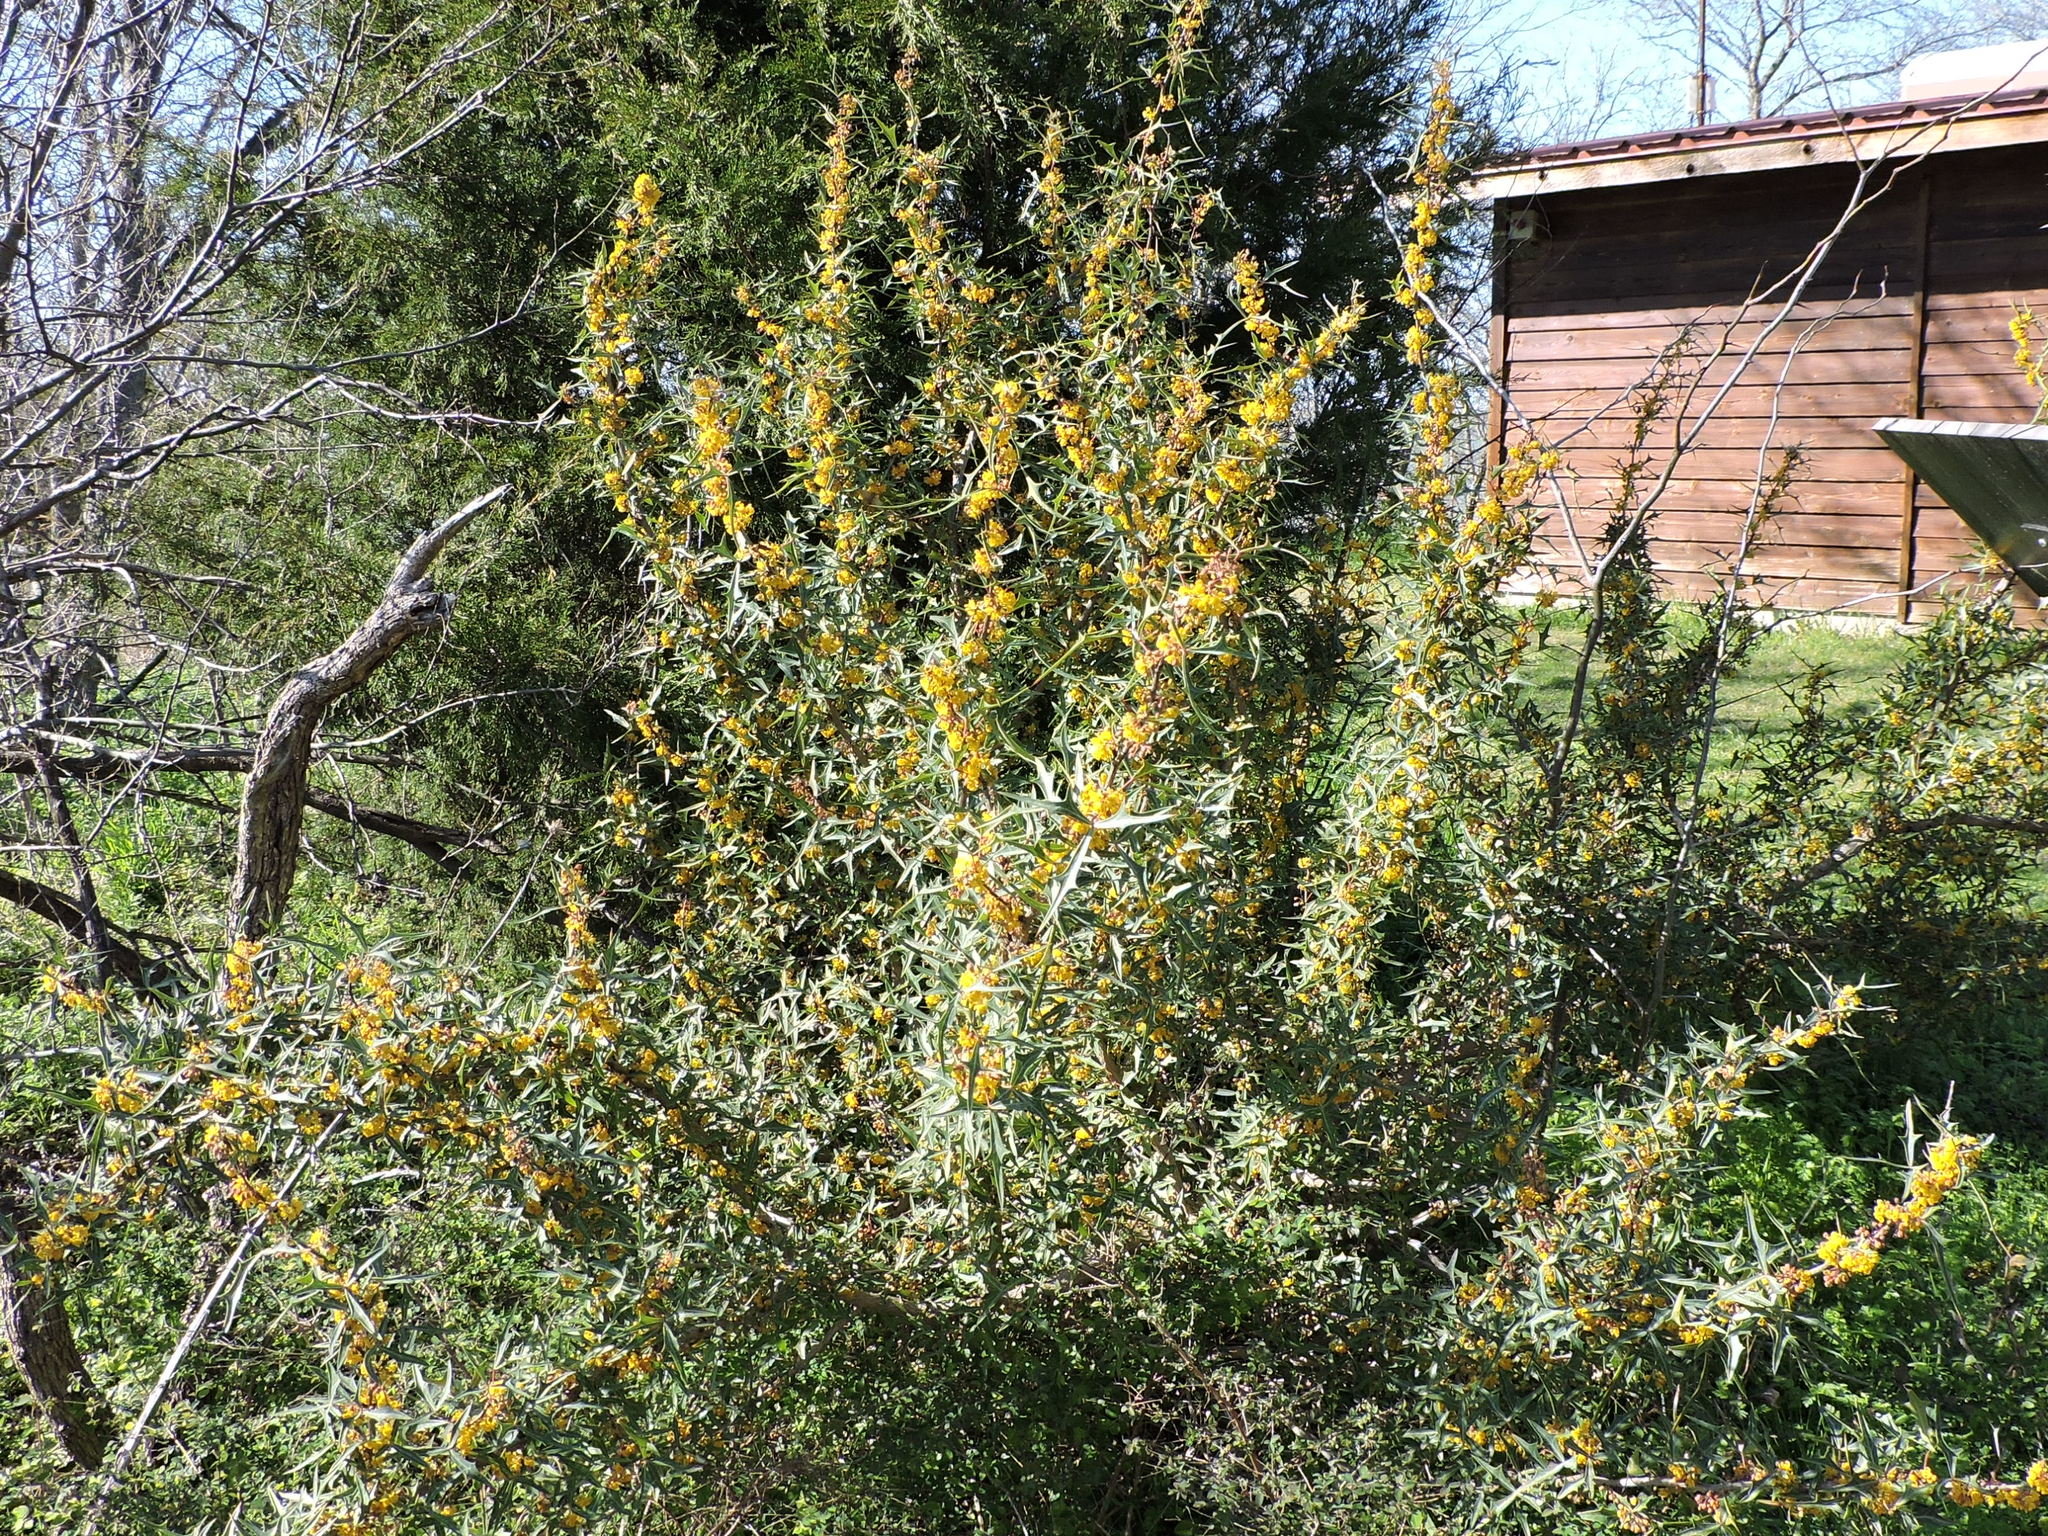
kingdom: Plantae
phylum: Tracheophyta
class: Magnoliopsida
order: Ranunculales
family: Berberidaceae
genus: Alloberberis
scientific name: Alloberberis trifoliolata
